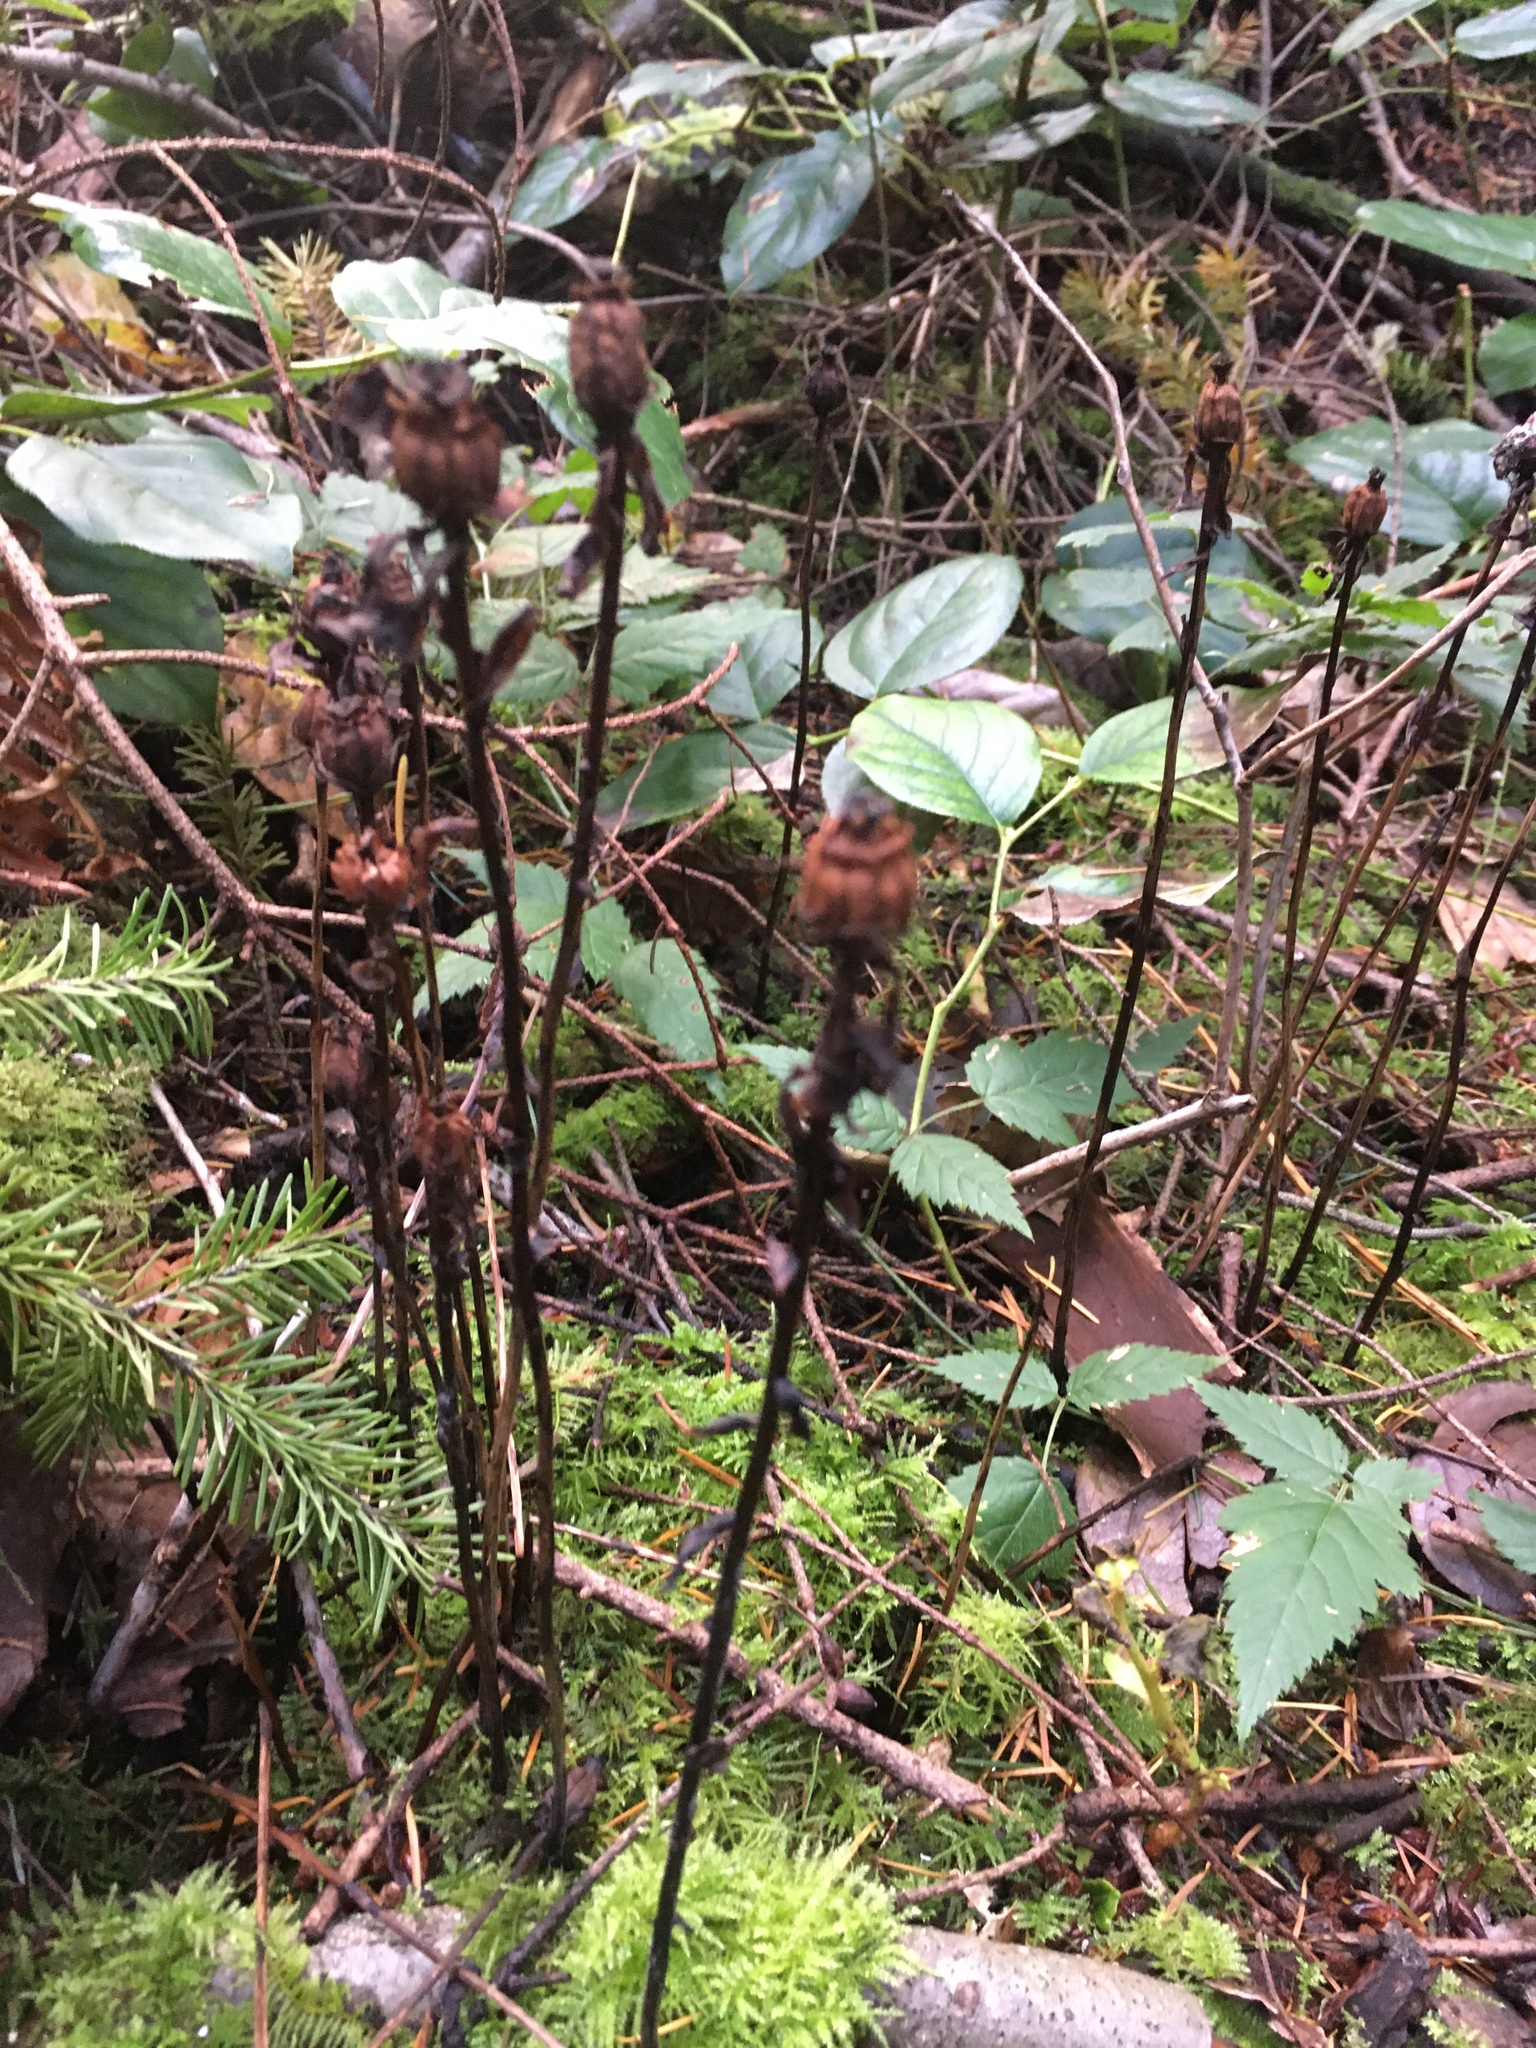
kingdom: Plantae
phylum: Tracheophyta
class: Magnoliopsida
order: Ericales
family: Ericaceae
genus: Monotropa
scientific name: Monotropa uniflora
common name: Convulsion root
